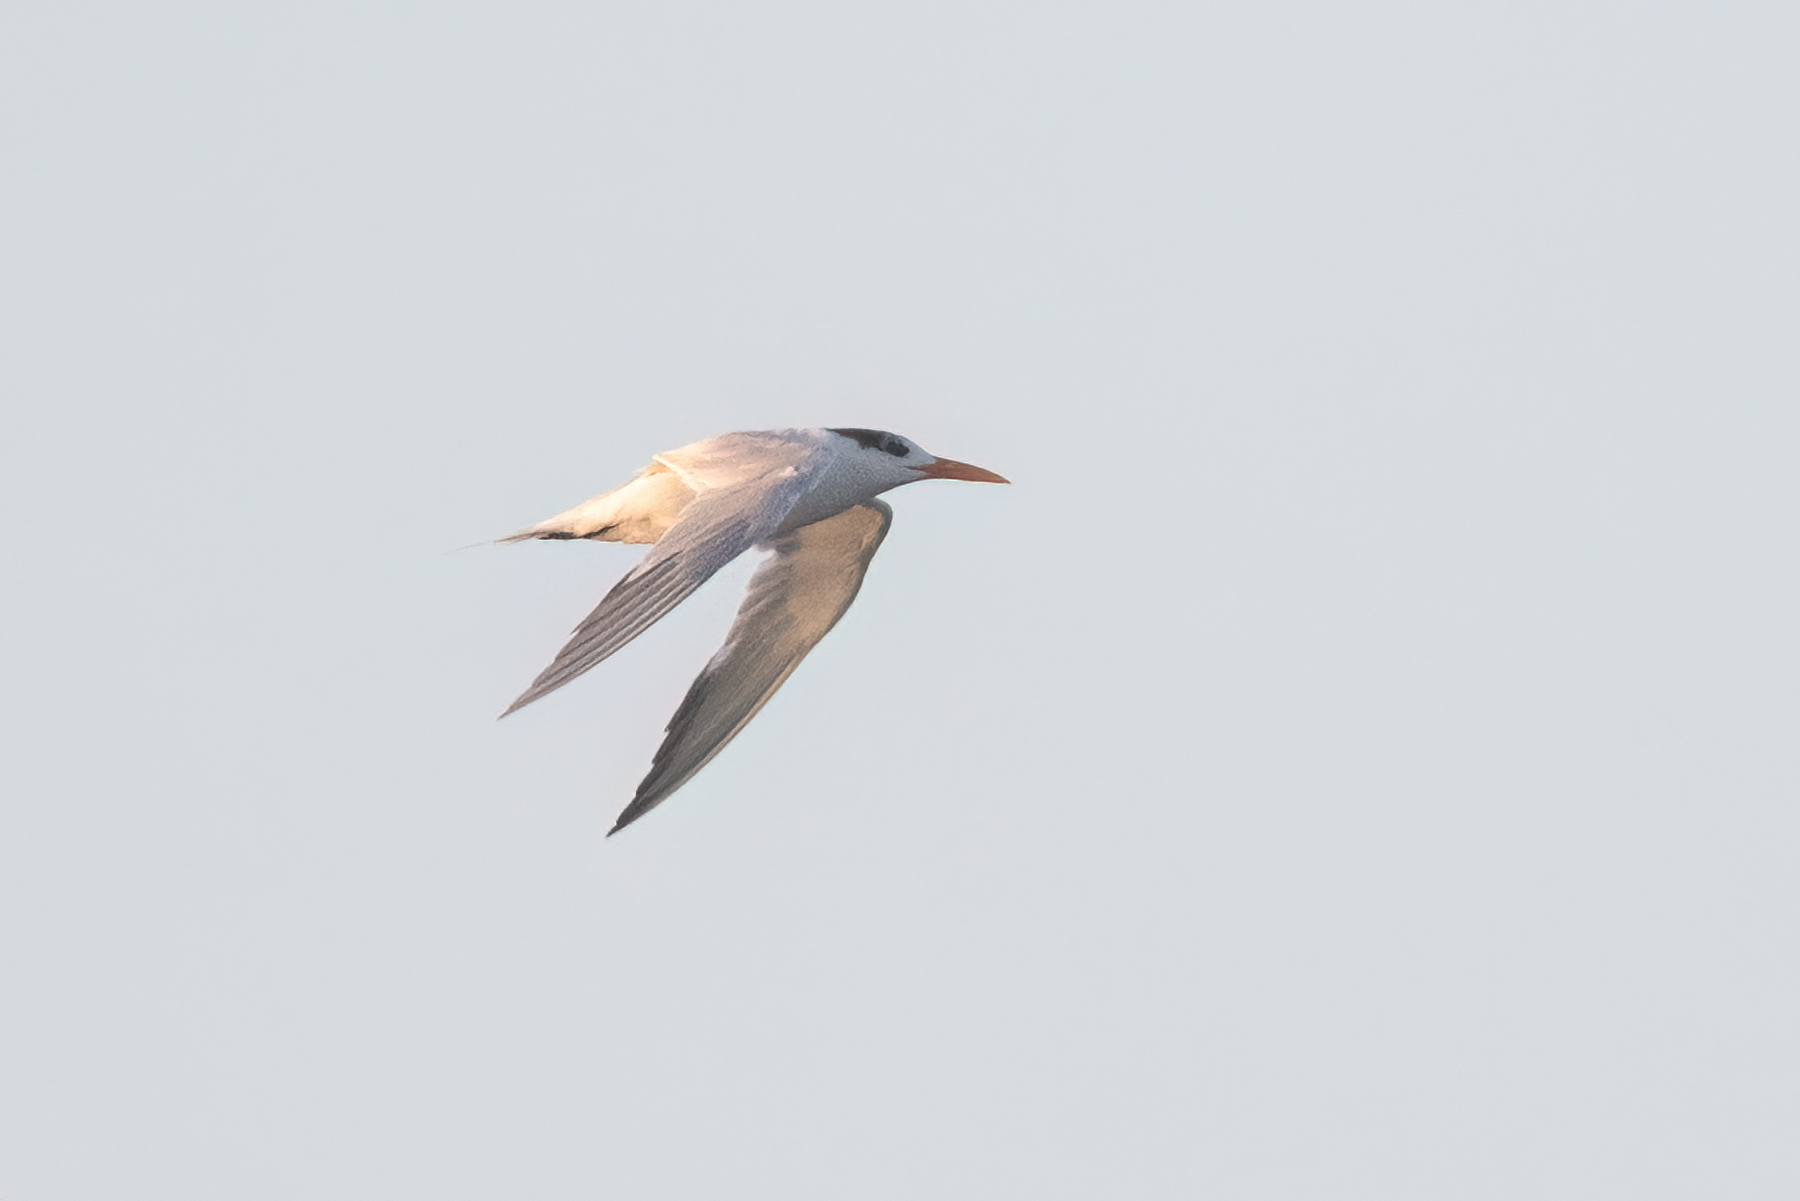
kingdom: Animalia
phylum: Chordata
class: Aves
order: Charadriiformes
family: Laridae
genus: Thalasseus
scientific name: Thalasseus maximus
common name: Royal tern
